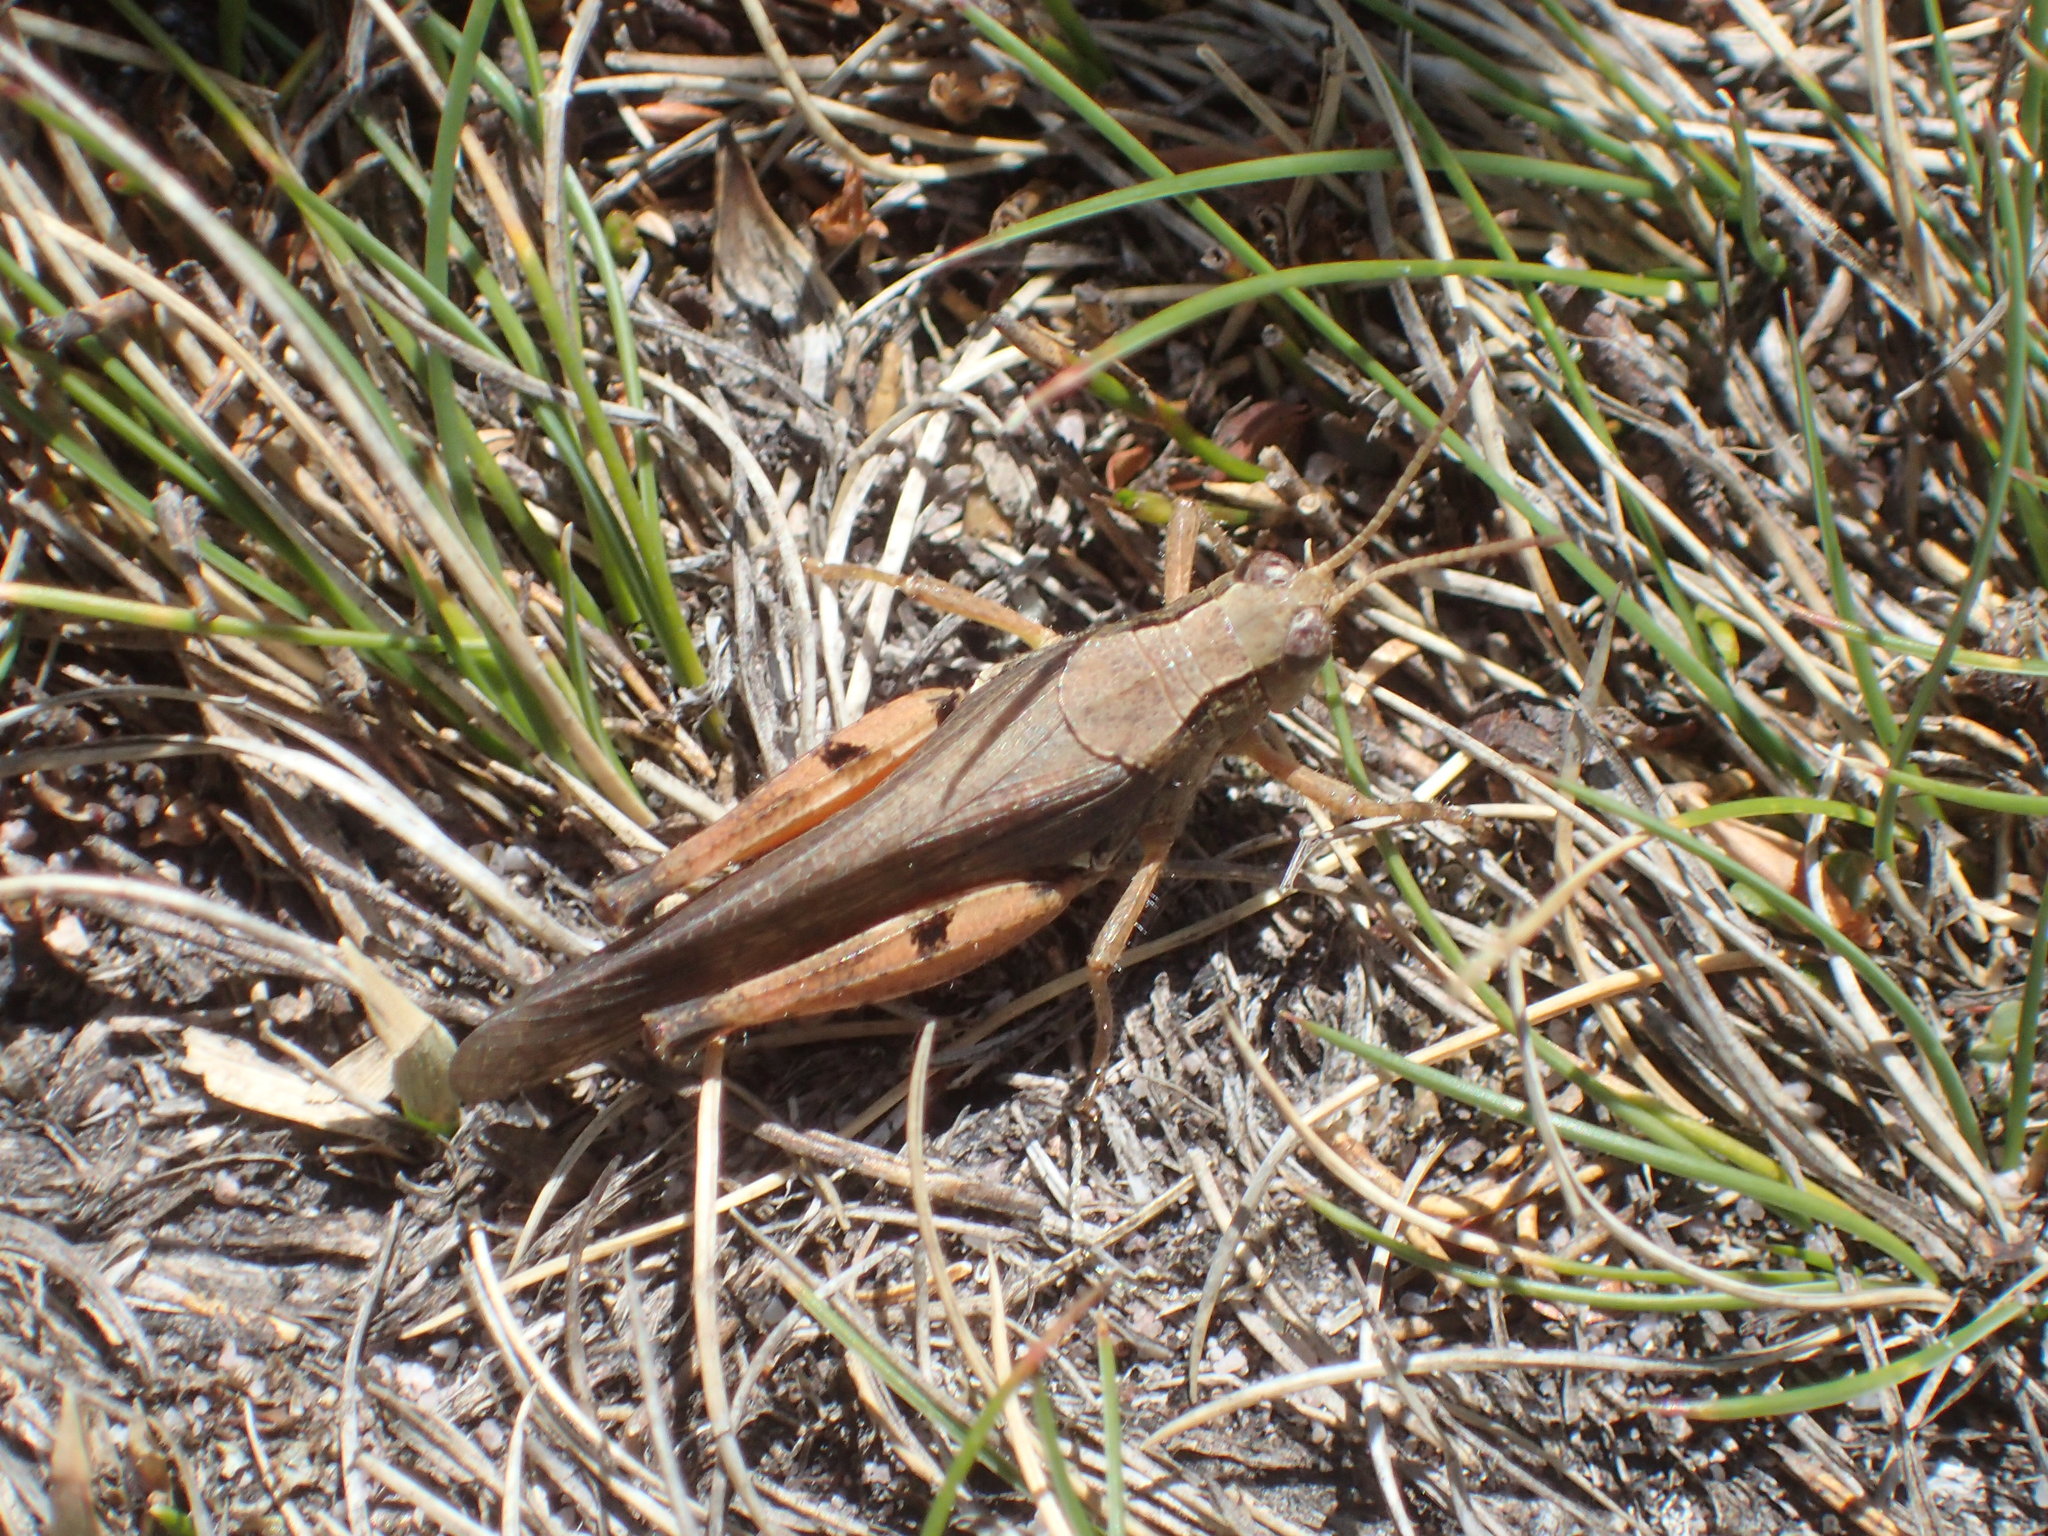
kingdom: Animalia
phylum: Arthropoda
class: Insecta
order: Orthoptera
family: Acrididae
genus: Phaulacridium
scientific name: Phaulacridium vittatum
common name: Wingless grasshopper
